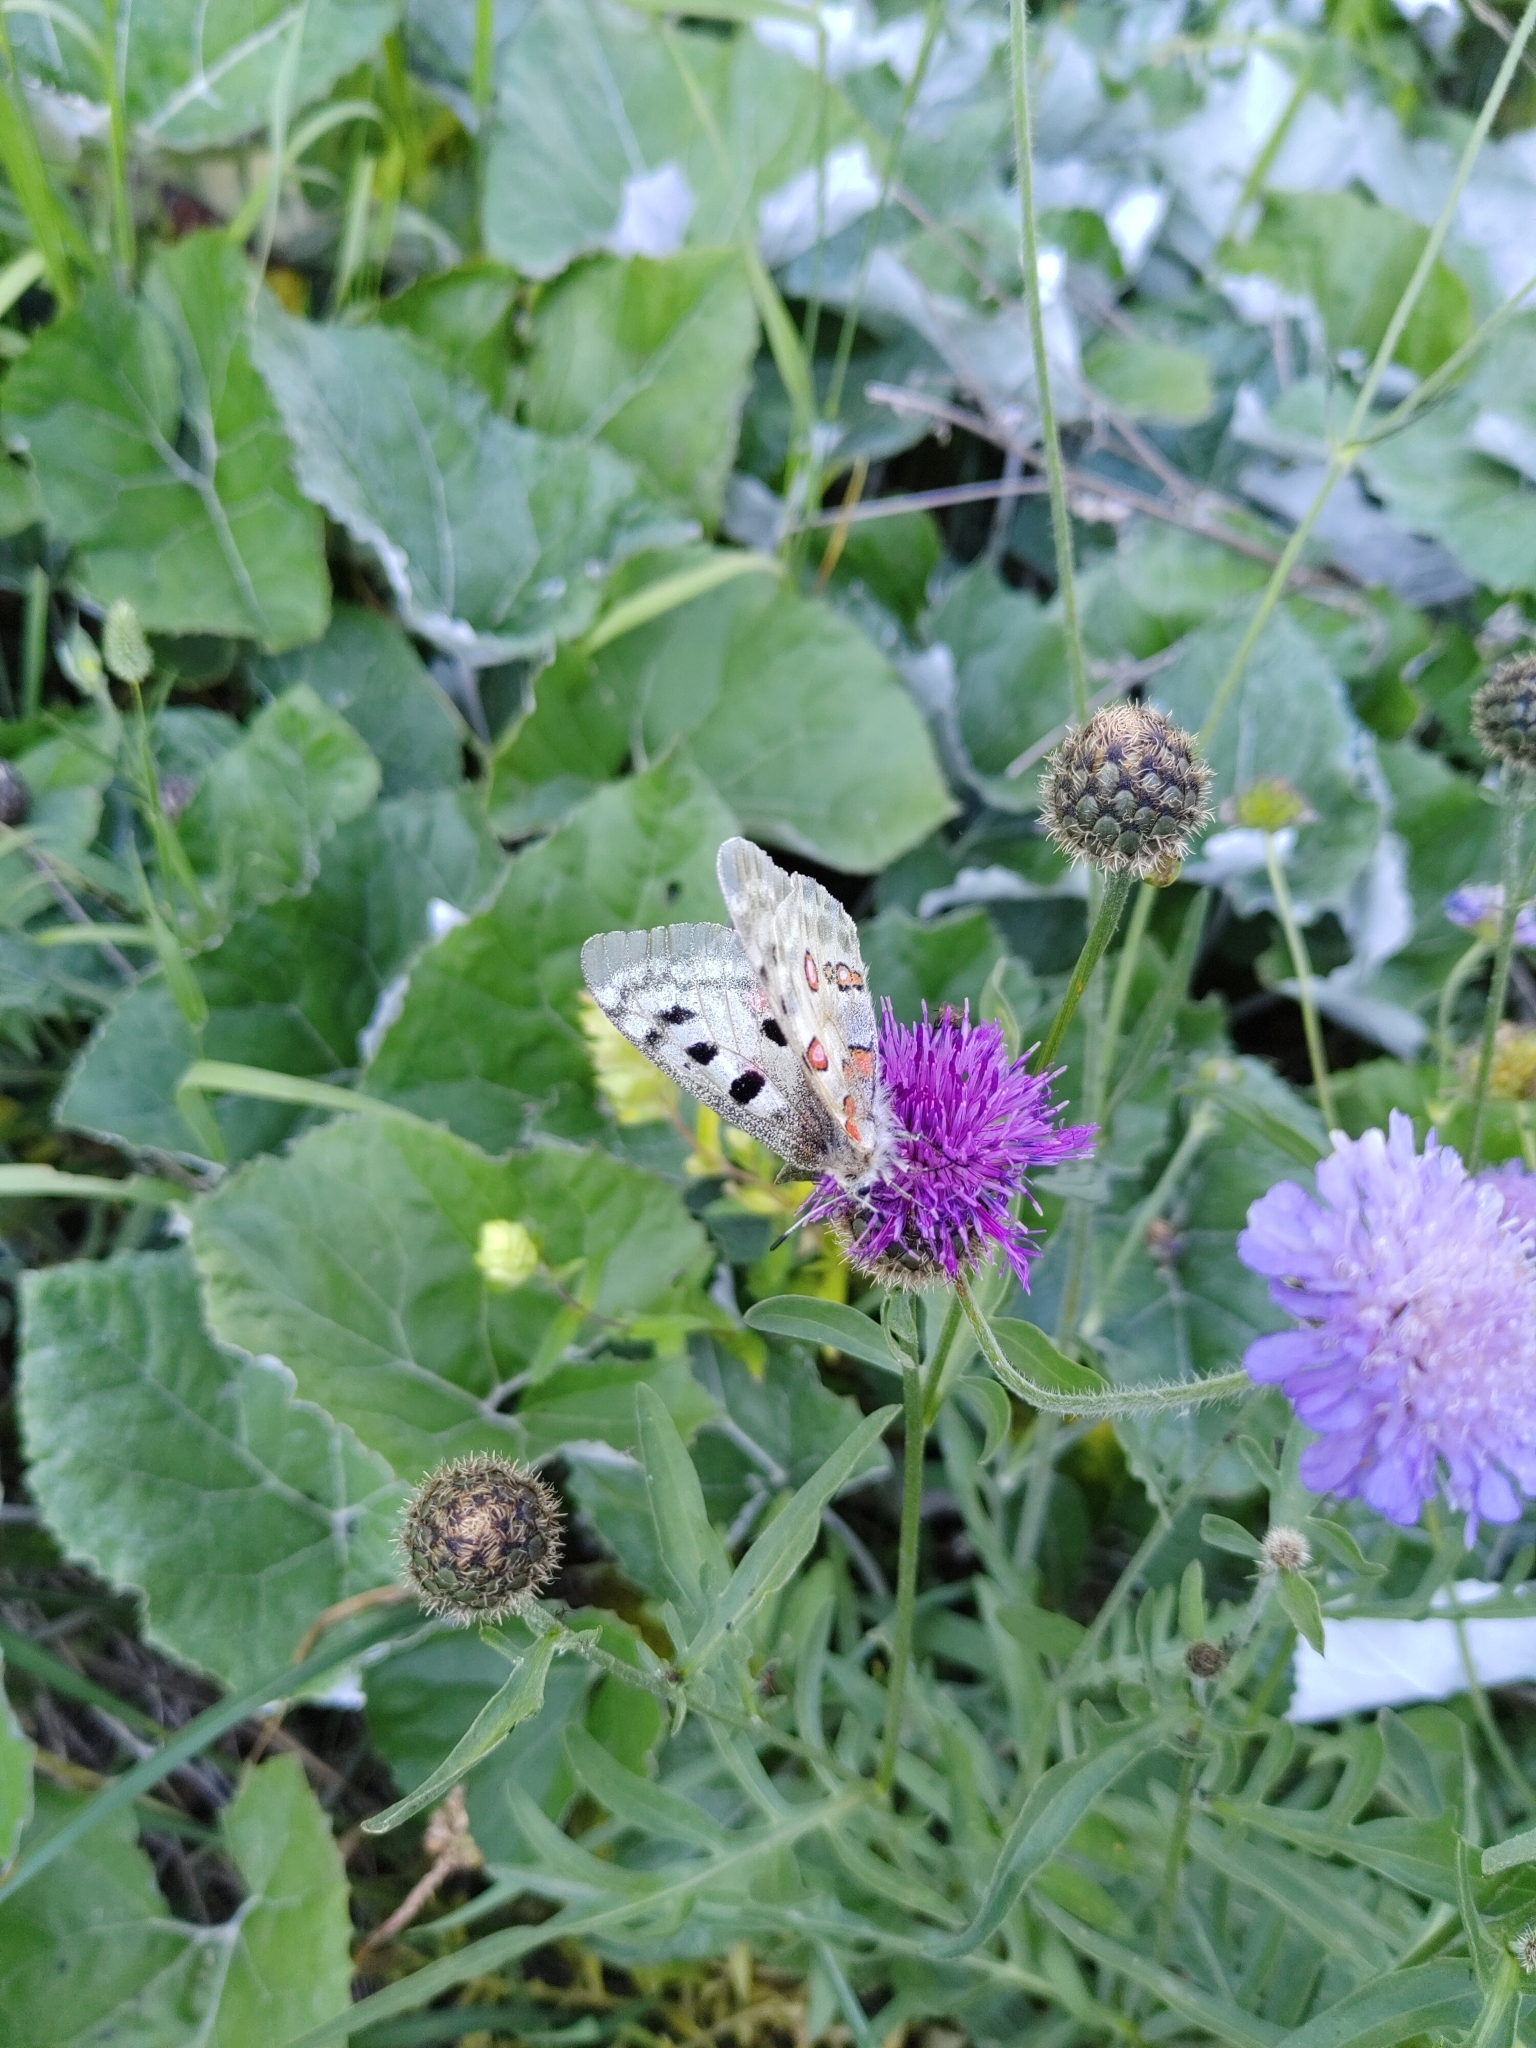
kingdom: Animalia
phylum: Arthropoda
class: Insecta
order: Lepidoptera
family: Papilionidae
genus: Parnassius
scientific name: Parnassius apollo
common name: Apollo
